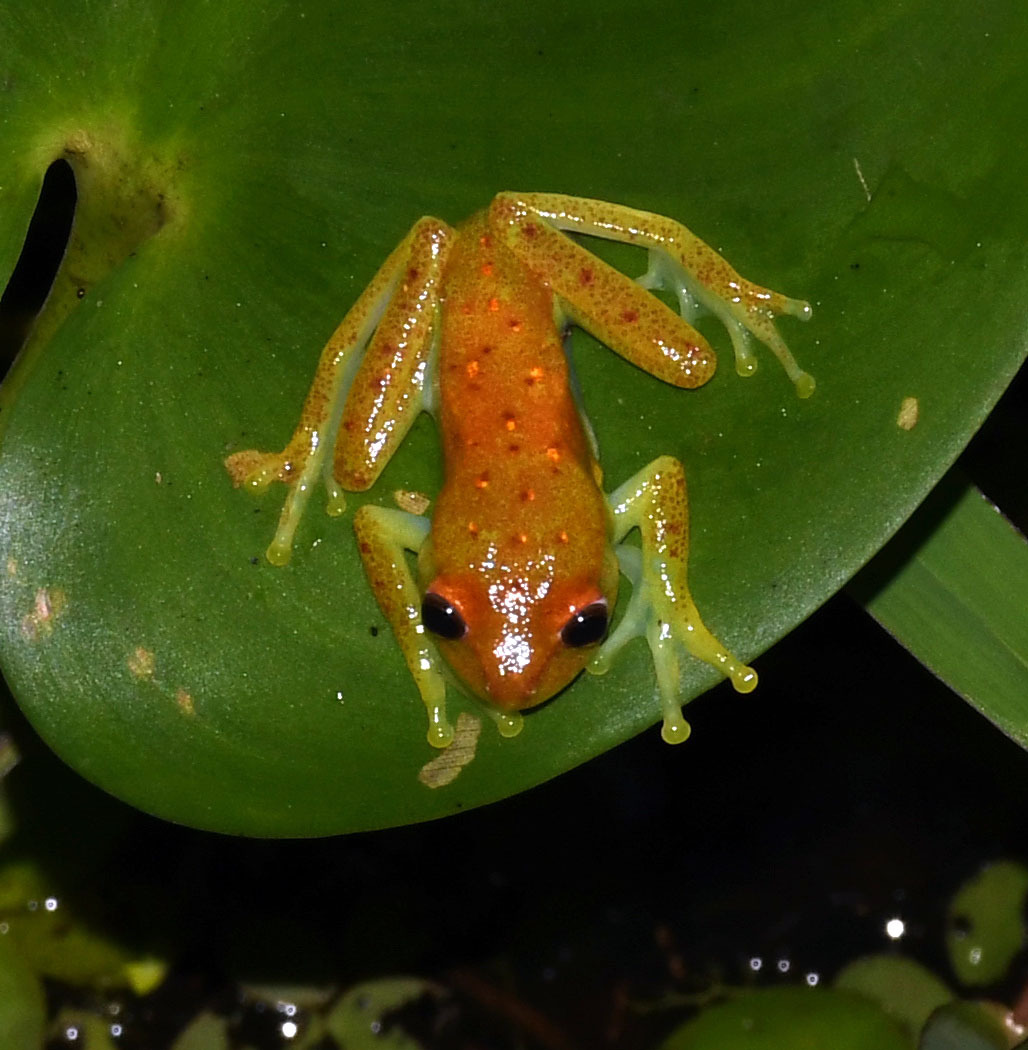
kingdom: Animalia
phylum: Chordata
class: Amphibia
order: Anura
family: Hylidae
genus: Boana
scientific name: Boana punctata
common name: Polka-dot treefrog
